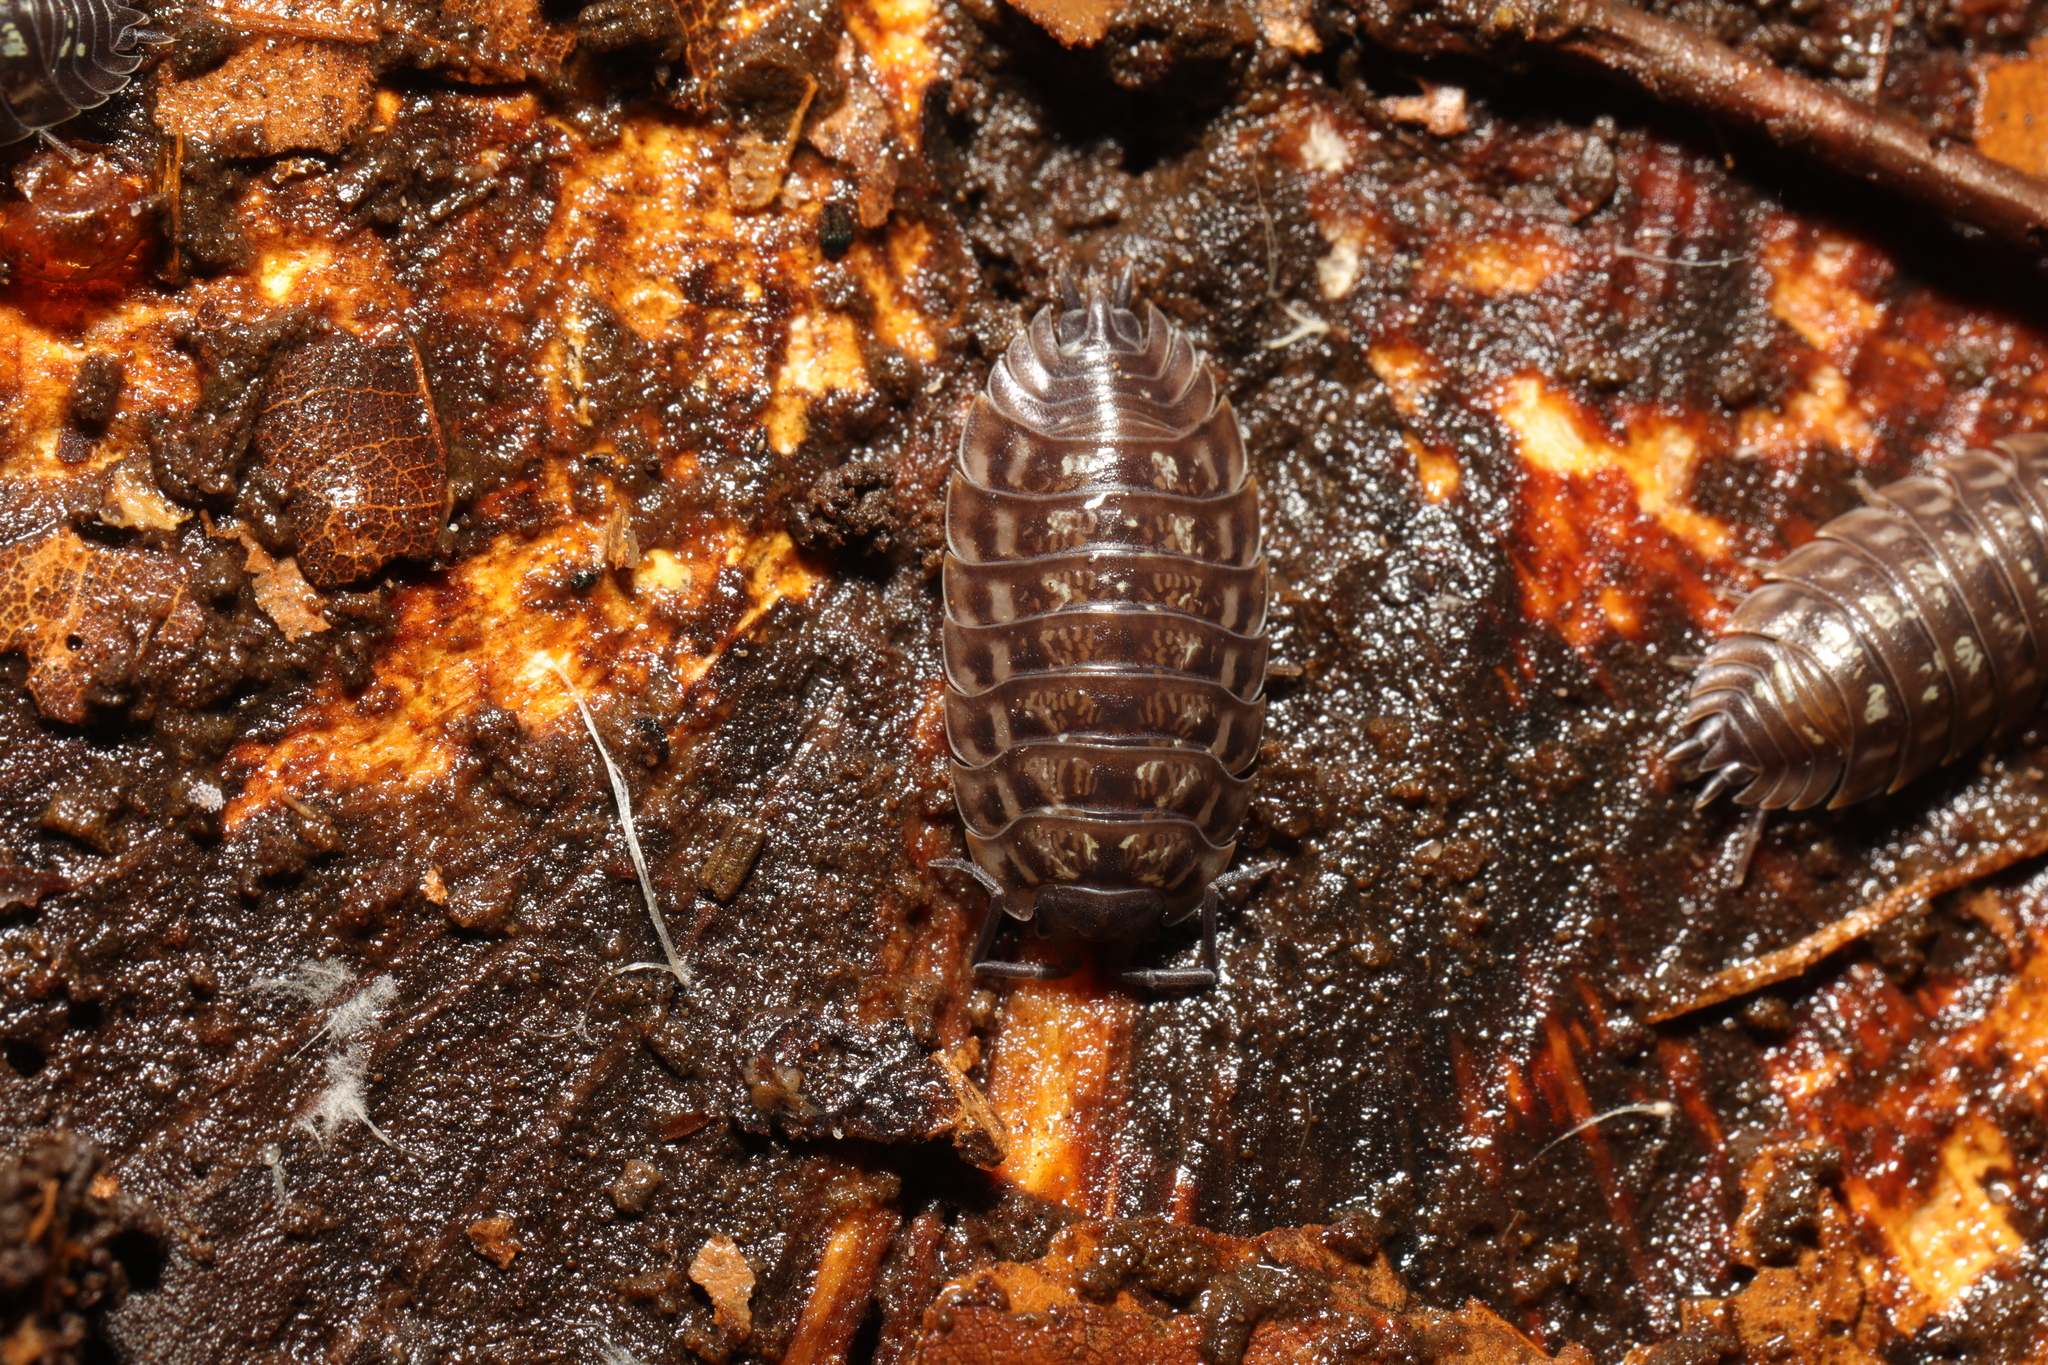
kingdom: Animalia
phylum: Arthropoda
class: Malacostraca
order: Isopoda
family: Oniscidae
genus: Oniscus
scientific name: Oniscus asellus
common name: Common shiny woodlouse
